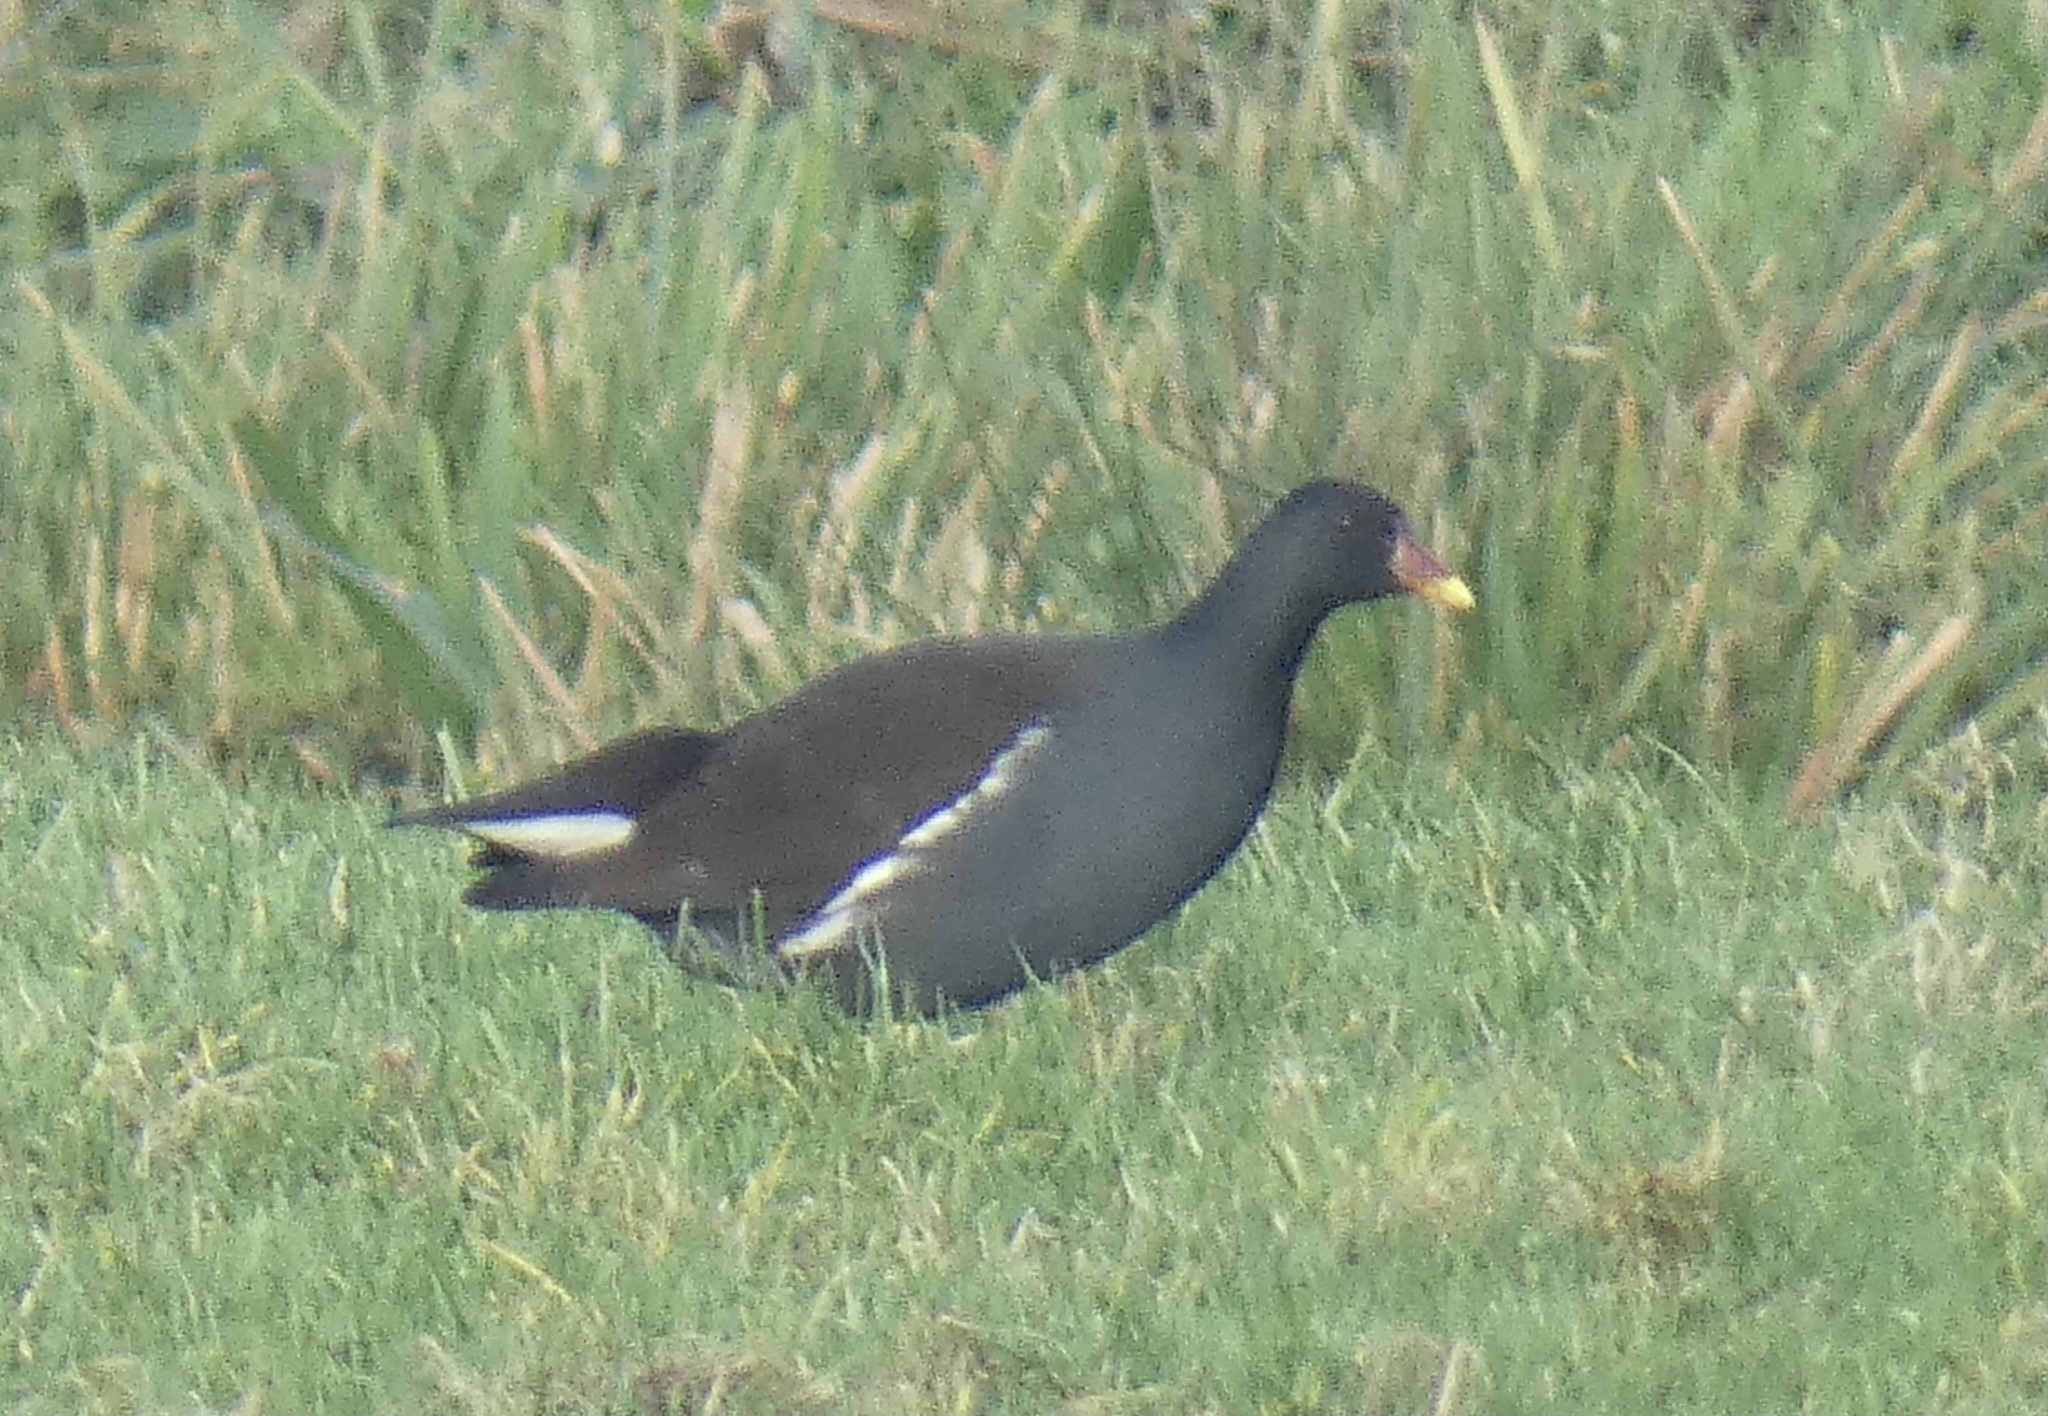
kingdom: Animalia
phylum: Chordata
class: Aves
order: Gruiformes
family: Rallidae
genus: Gallinula
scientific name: Gallinula chloropus
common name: Common moorhen
